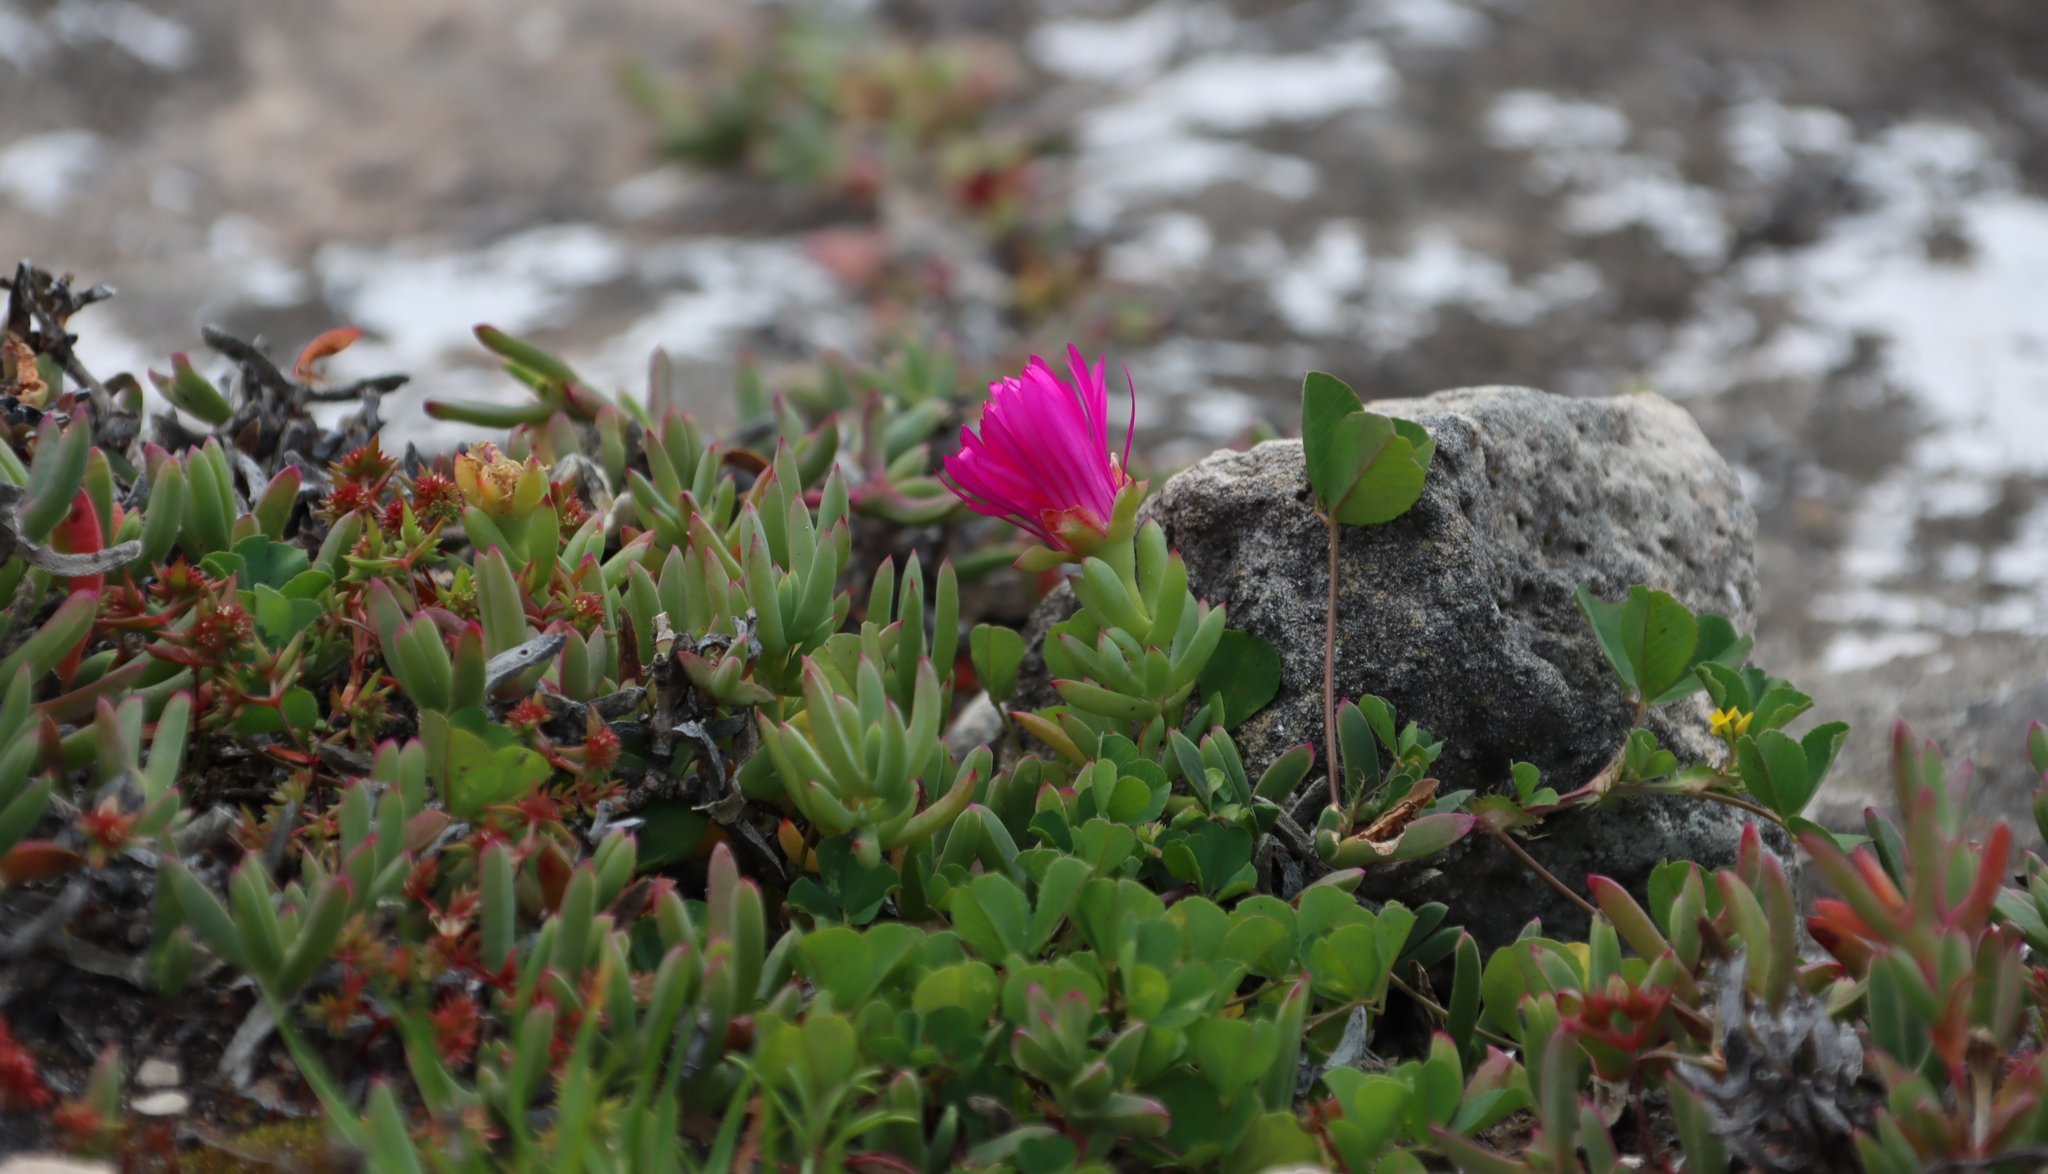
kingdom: Plantae
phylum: Tracheophyta
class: Magnoliopsida
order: Caryophyllales
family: Aizoaceae
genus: Lampranthus
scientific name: Lampranthus vernalis
